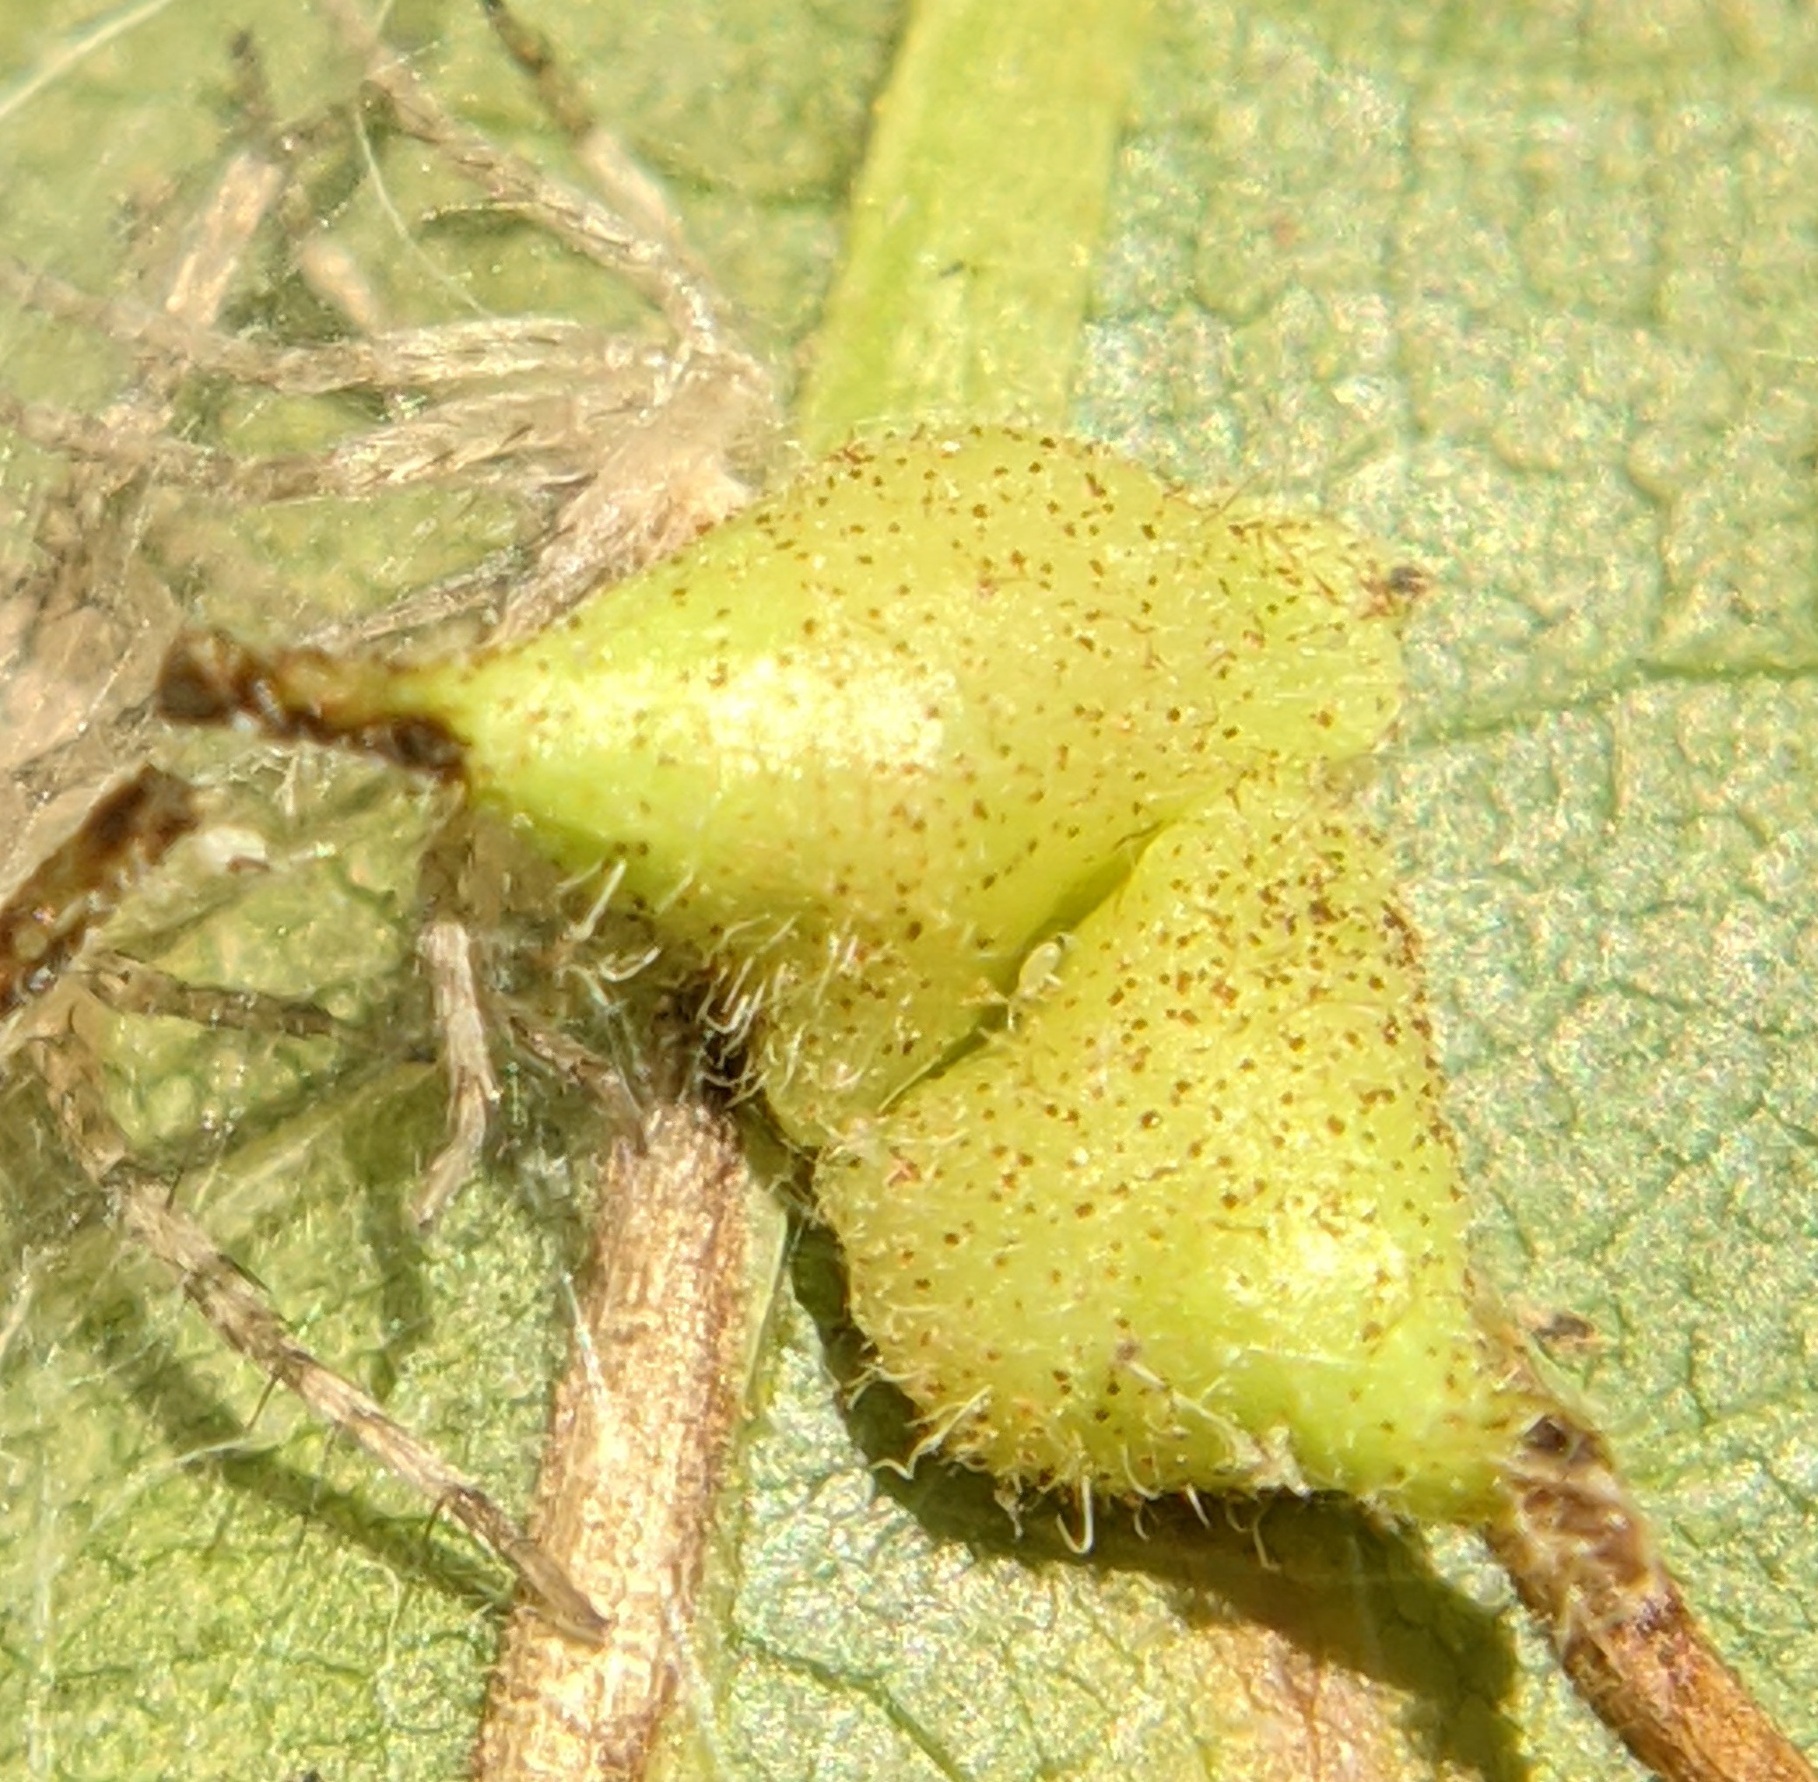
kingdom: Animalia
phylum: Arthropoda
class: Insecta
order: Diptera
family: Cecidomyiidae
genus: Caryomyia
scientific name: Caryomyia inclinata
